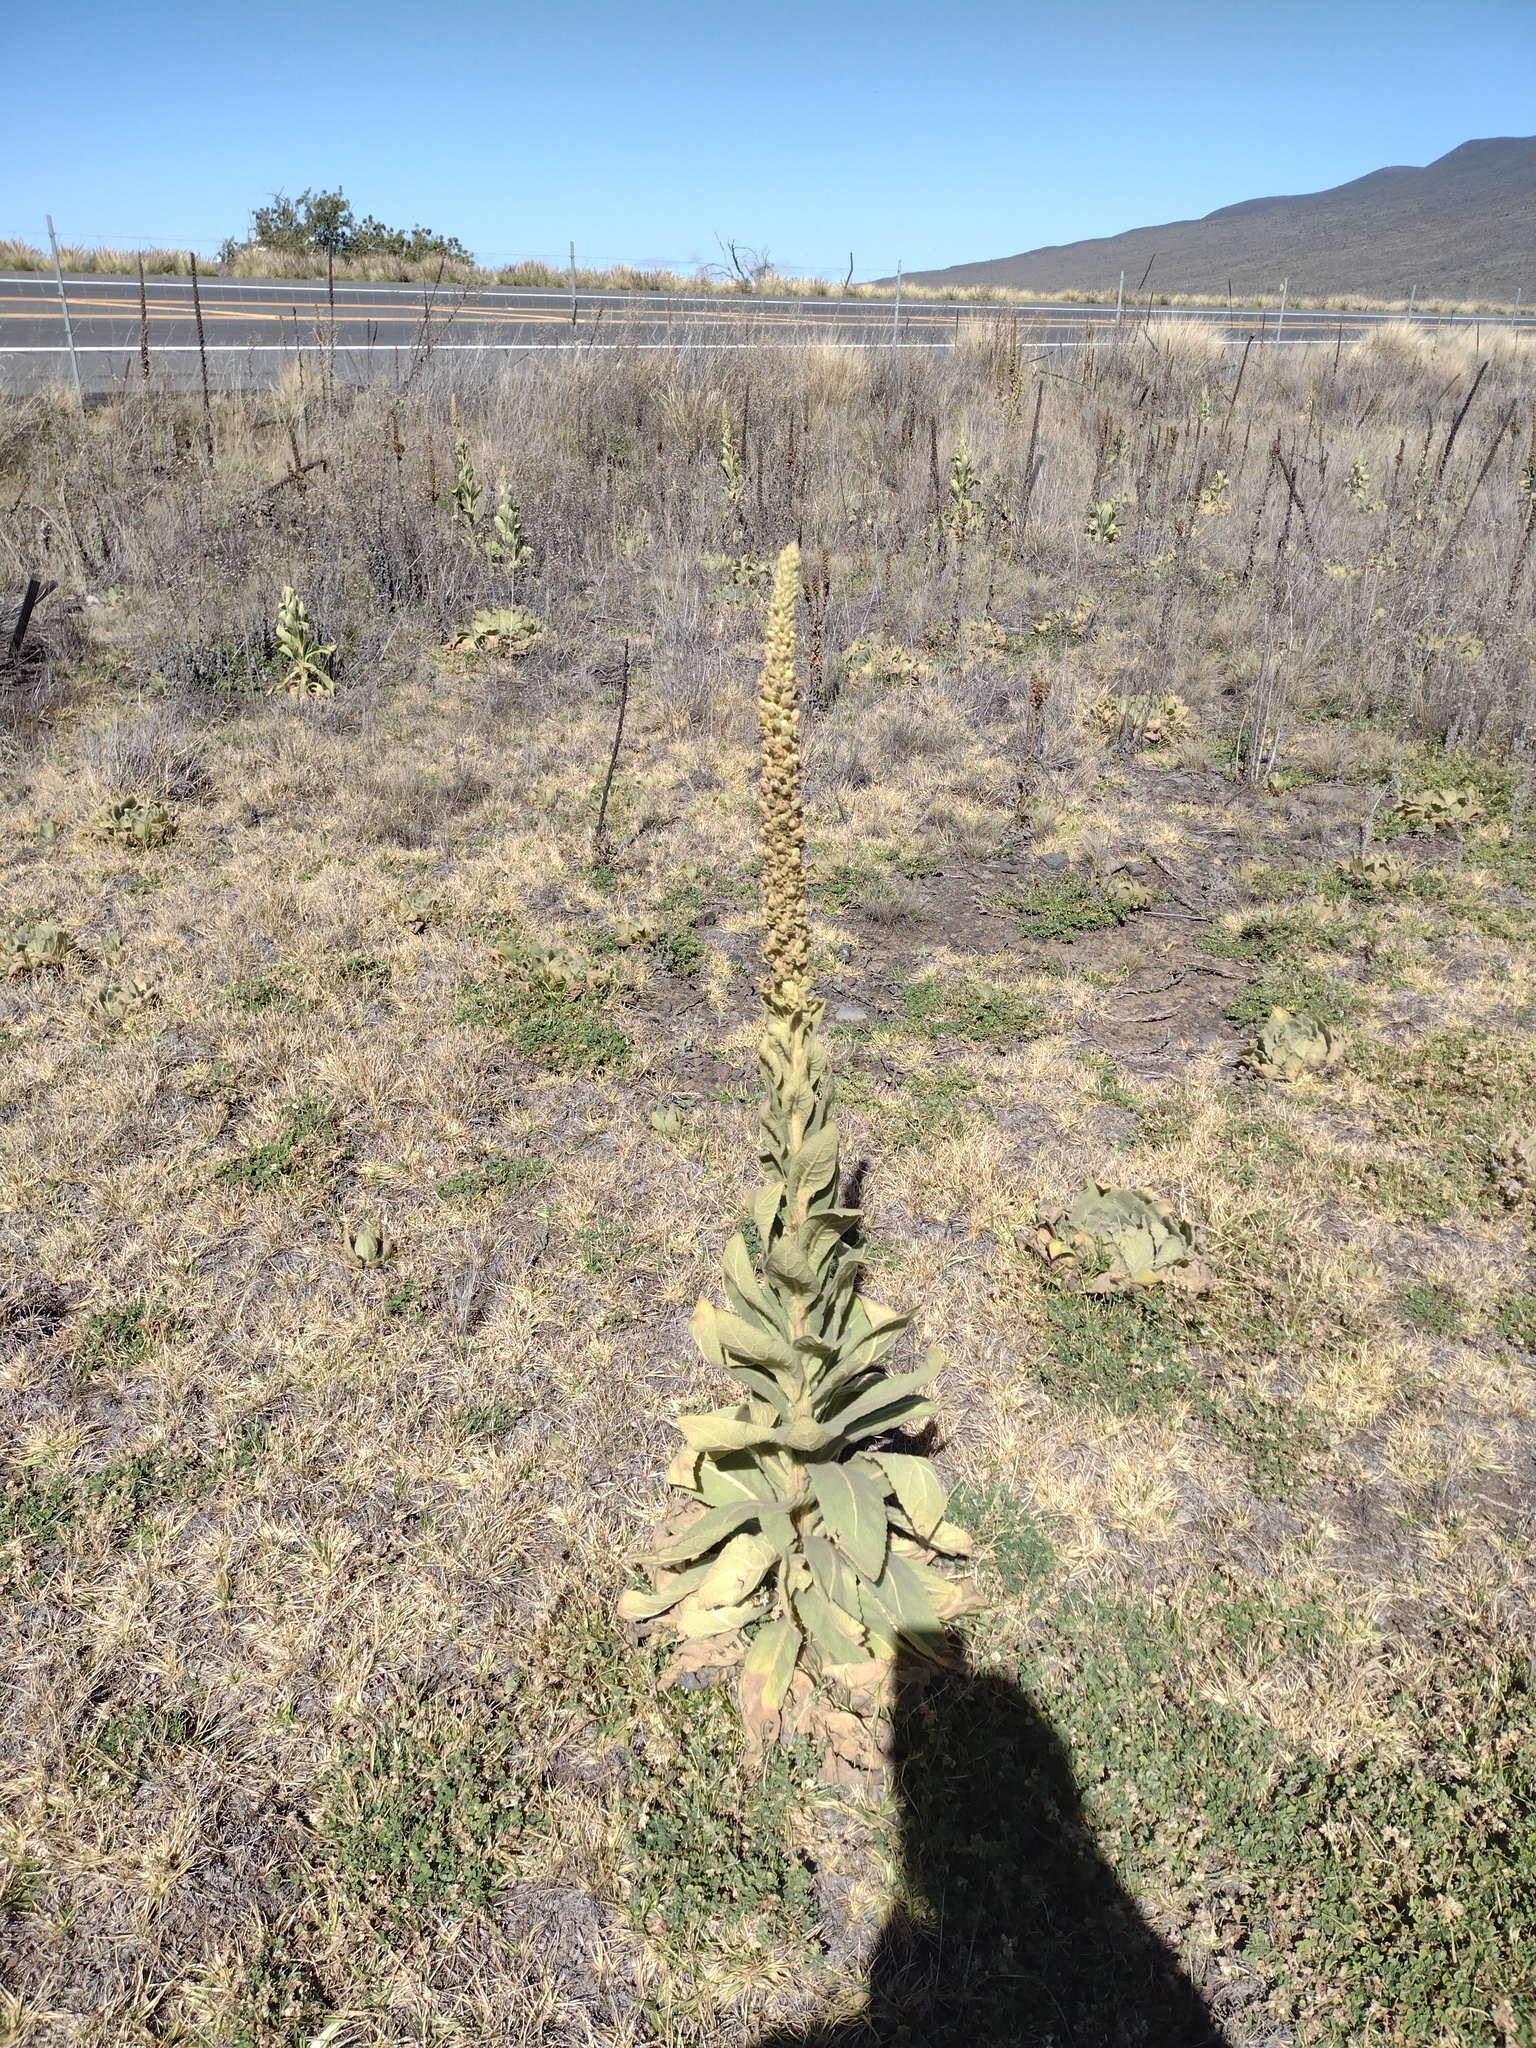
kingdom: Plantae
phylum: Tracheophyta
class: Magnoliopsida
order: Lamiales
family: Scrophulariaceae
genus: Verbascum
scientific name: Verbascum thapsus
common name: Common mullein
